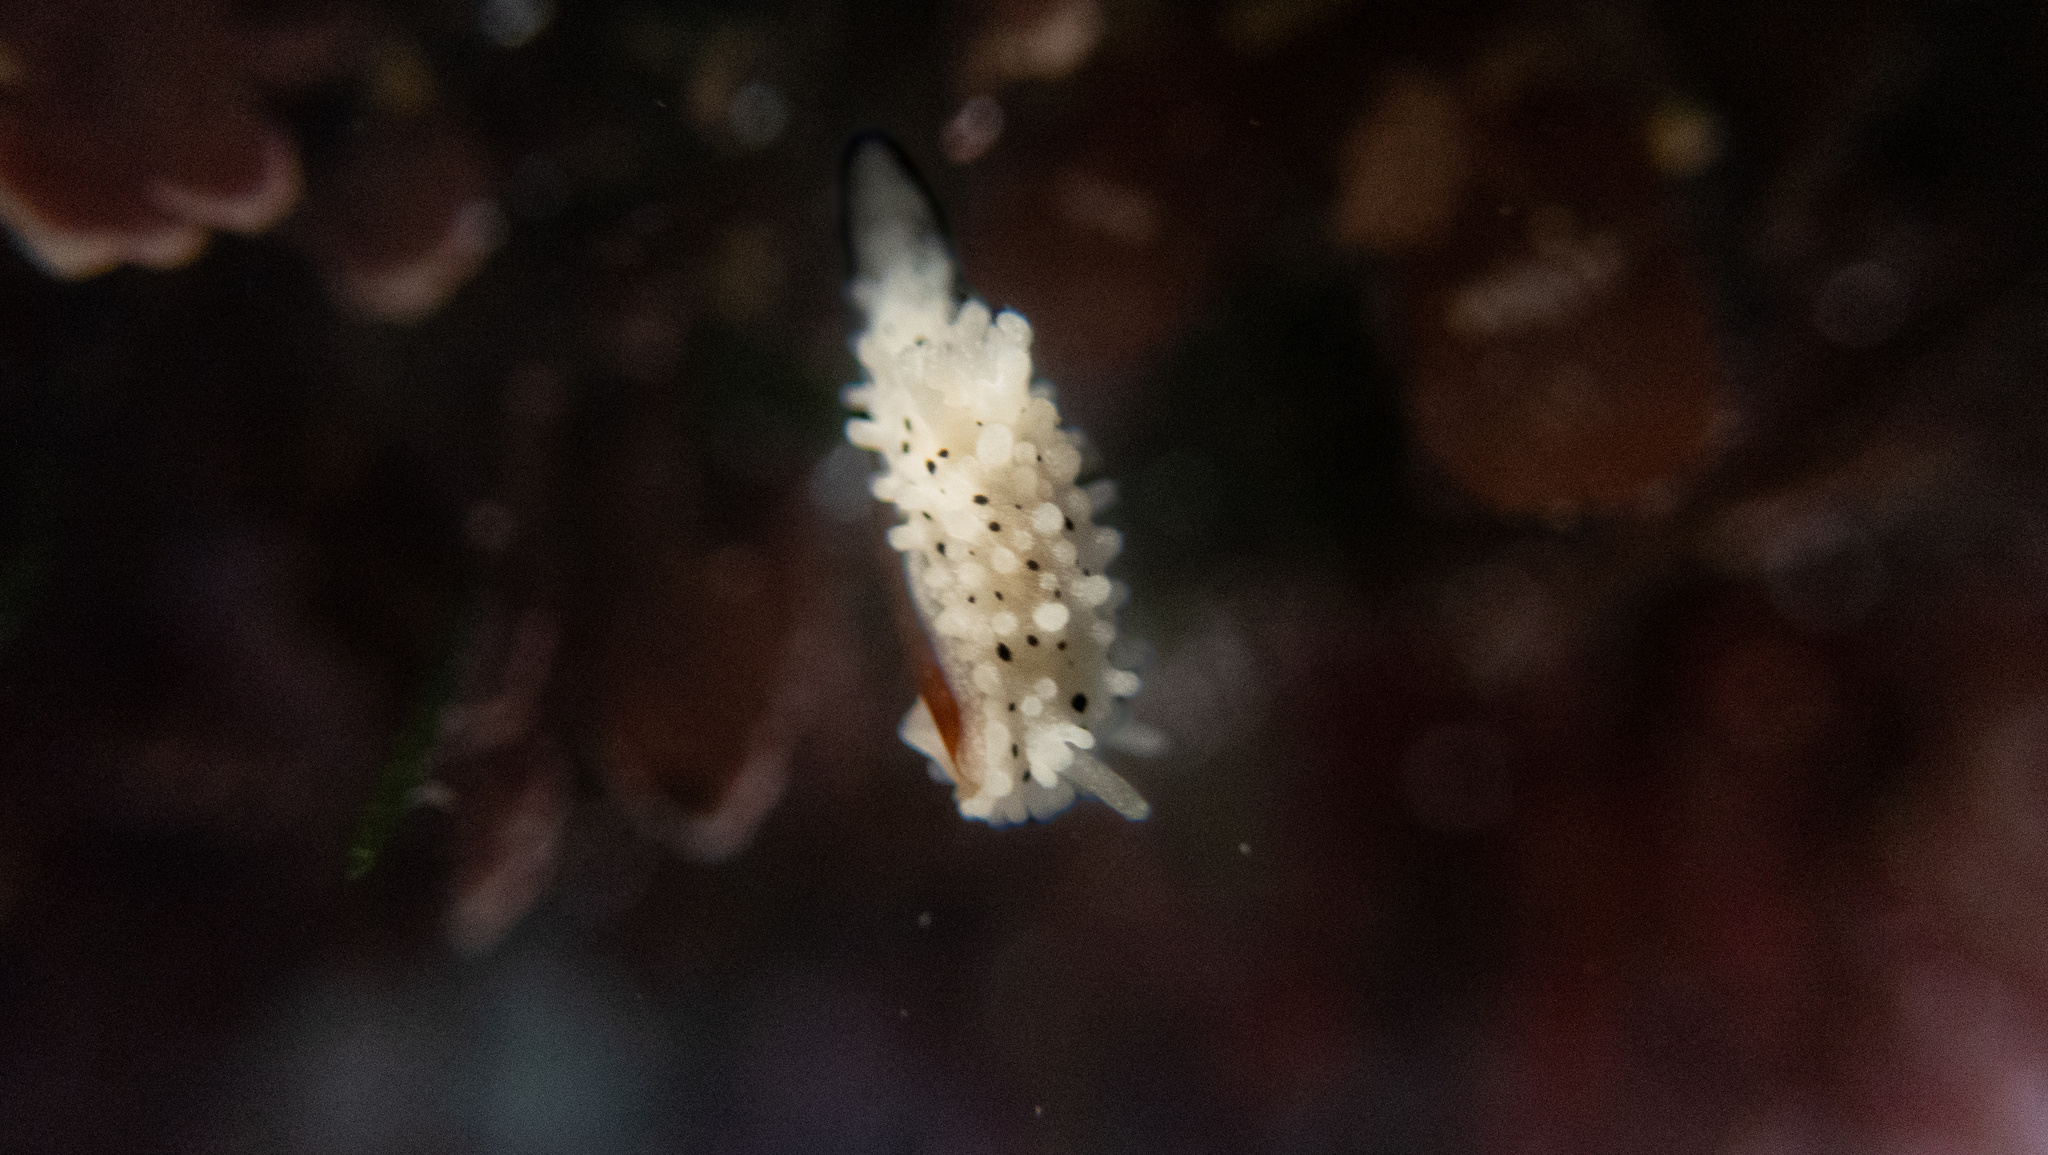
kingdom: Animalia
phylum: Mollusca
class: Gastropoda
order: Nudibranchia
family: Aegiridae
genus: Aegires
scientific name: Aegires albopunctatus
